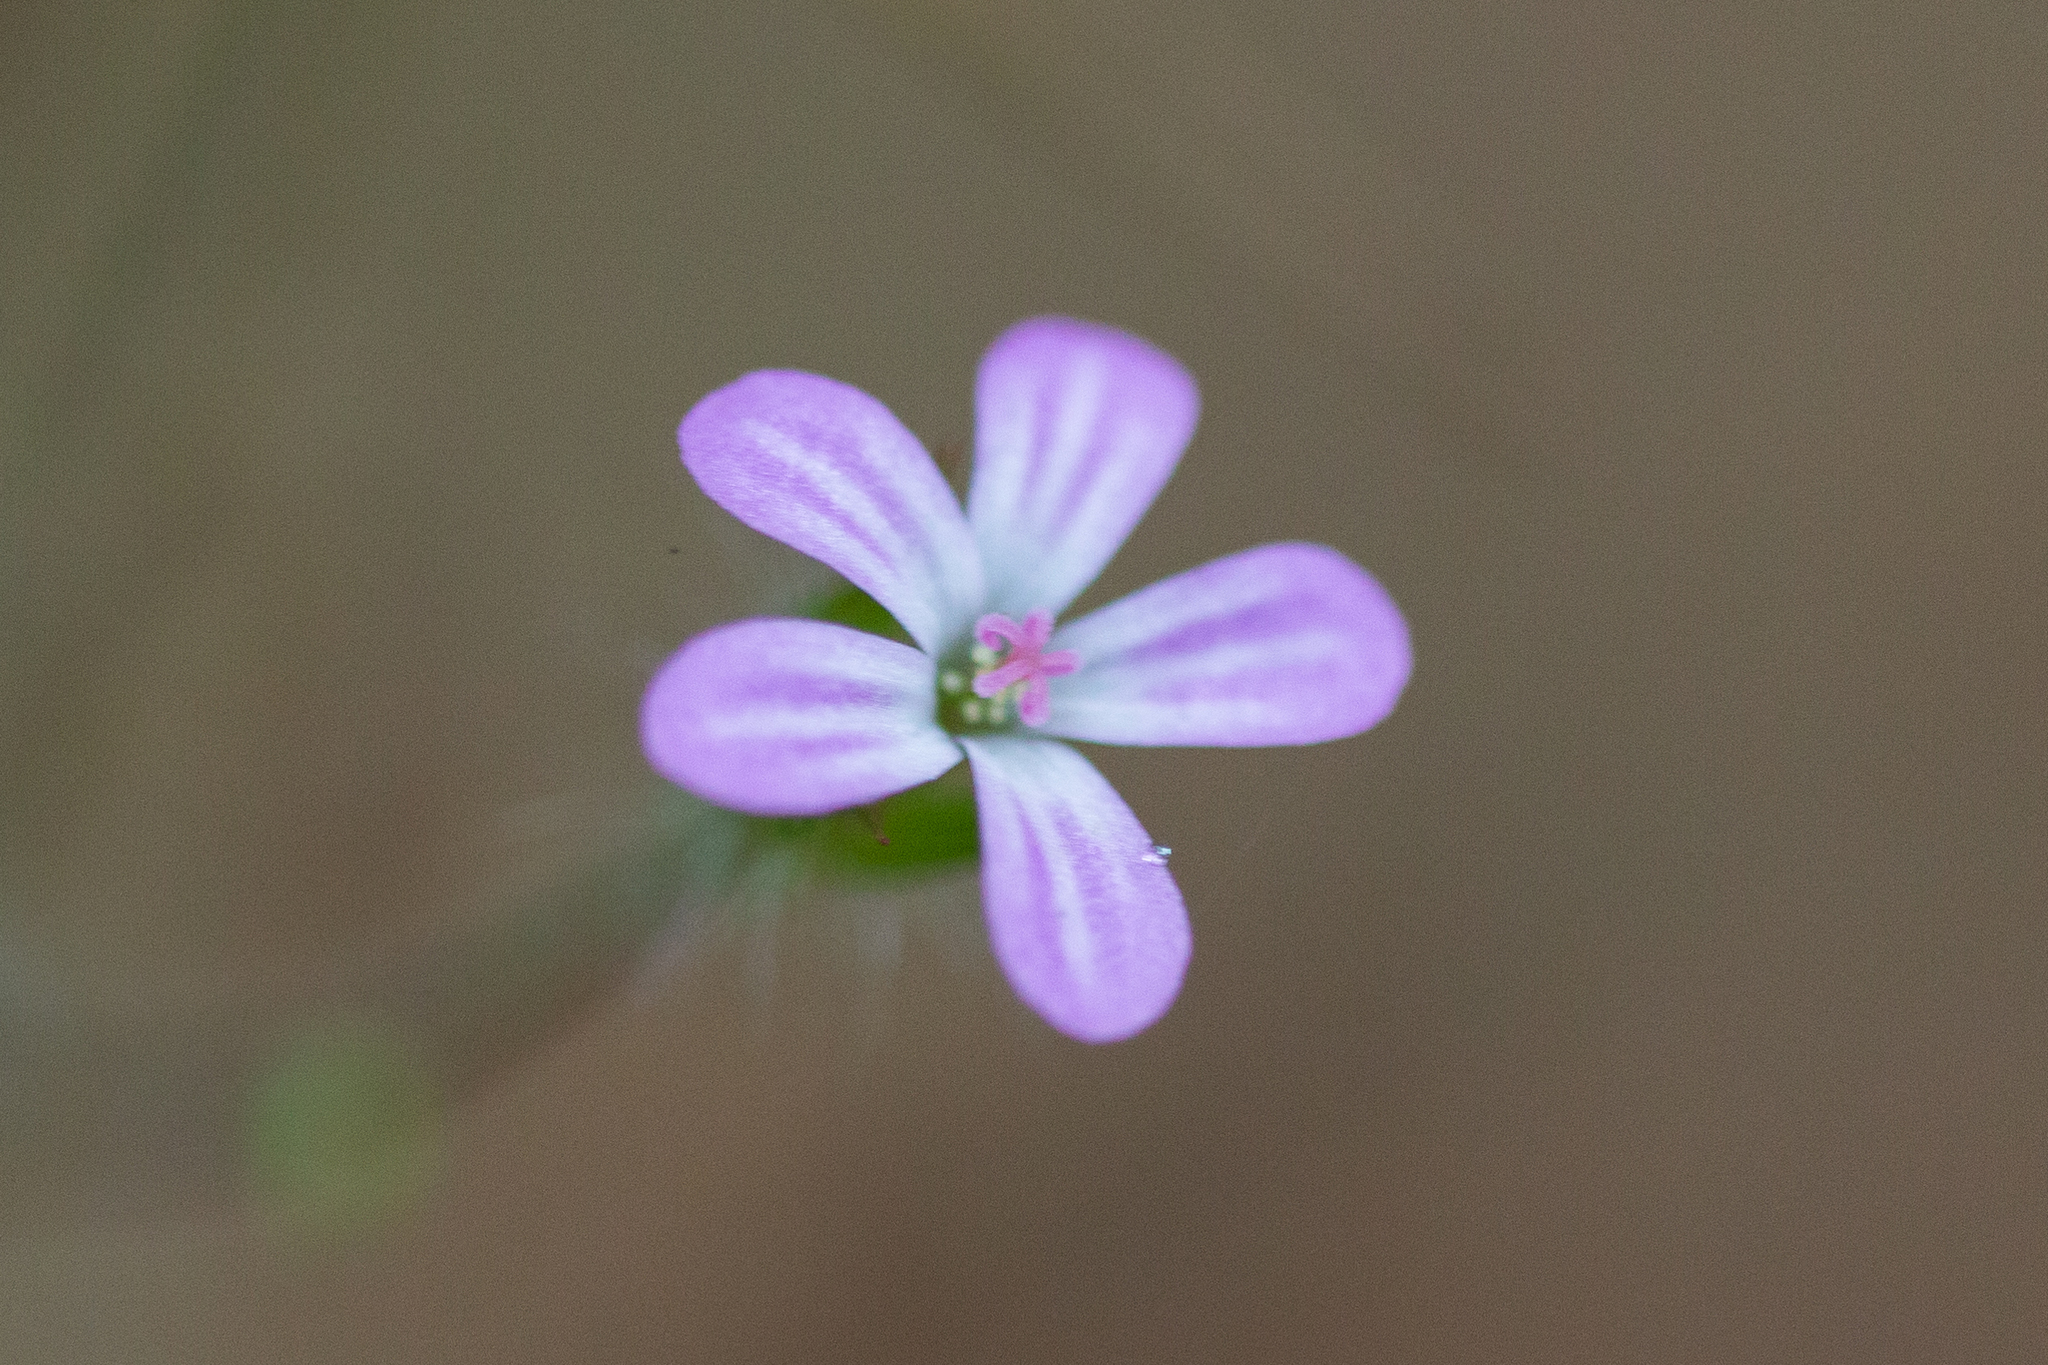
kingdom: Plantae
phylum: Tracheophyta
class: Magnoliopsida
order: Geraniales
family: Geraniaceae
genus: Geranium
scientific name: Geranium robertianum
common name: Herb-robert
